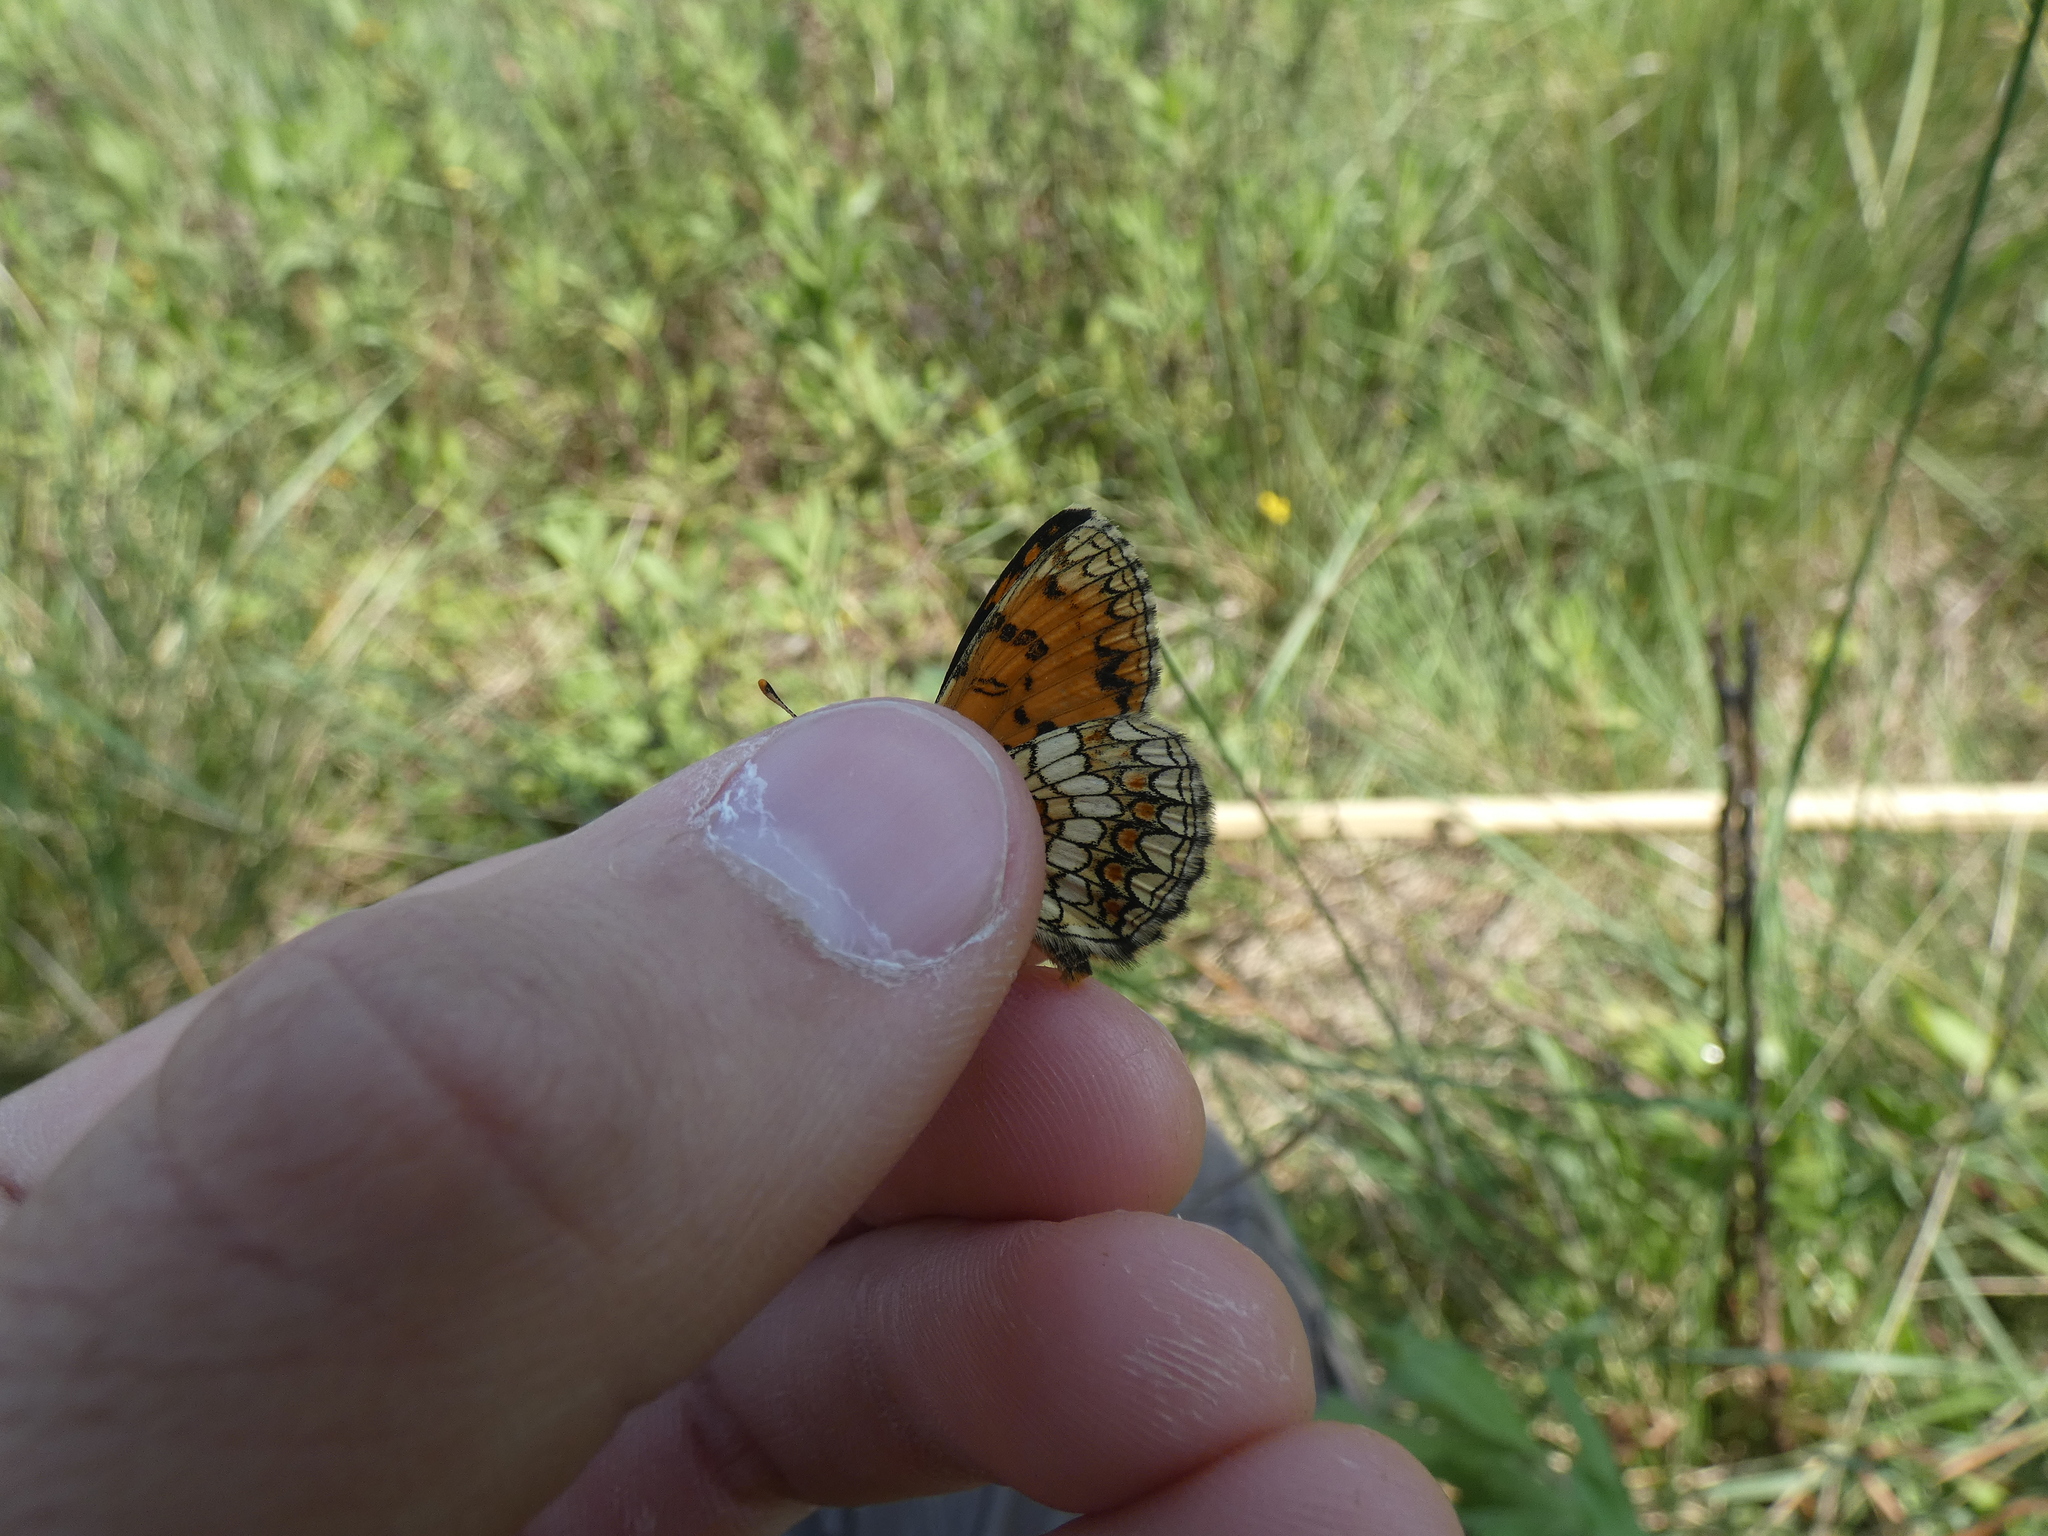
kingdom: Animalia
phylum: Arthropoda
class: Insecta
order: Lepidoptera
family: Nymphalidae
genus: Mellicta
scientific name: Mellicta athalia
